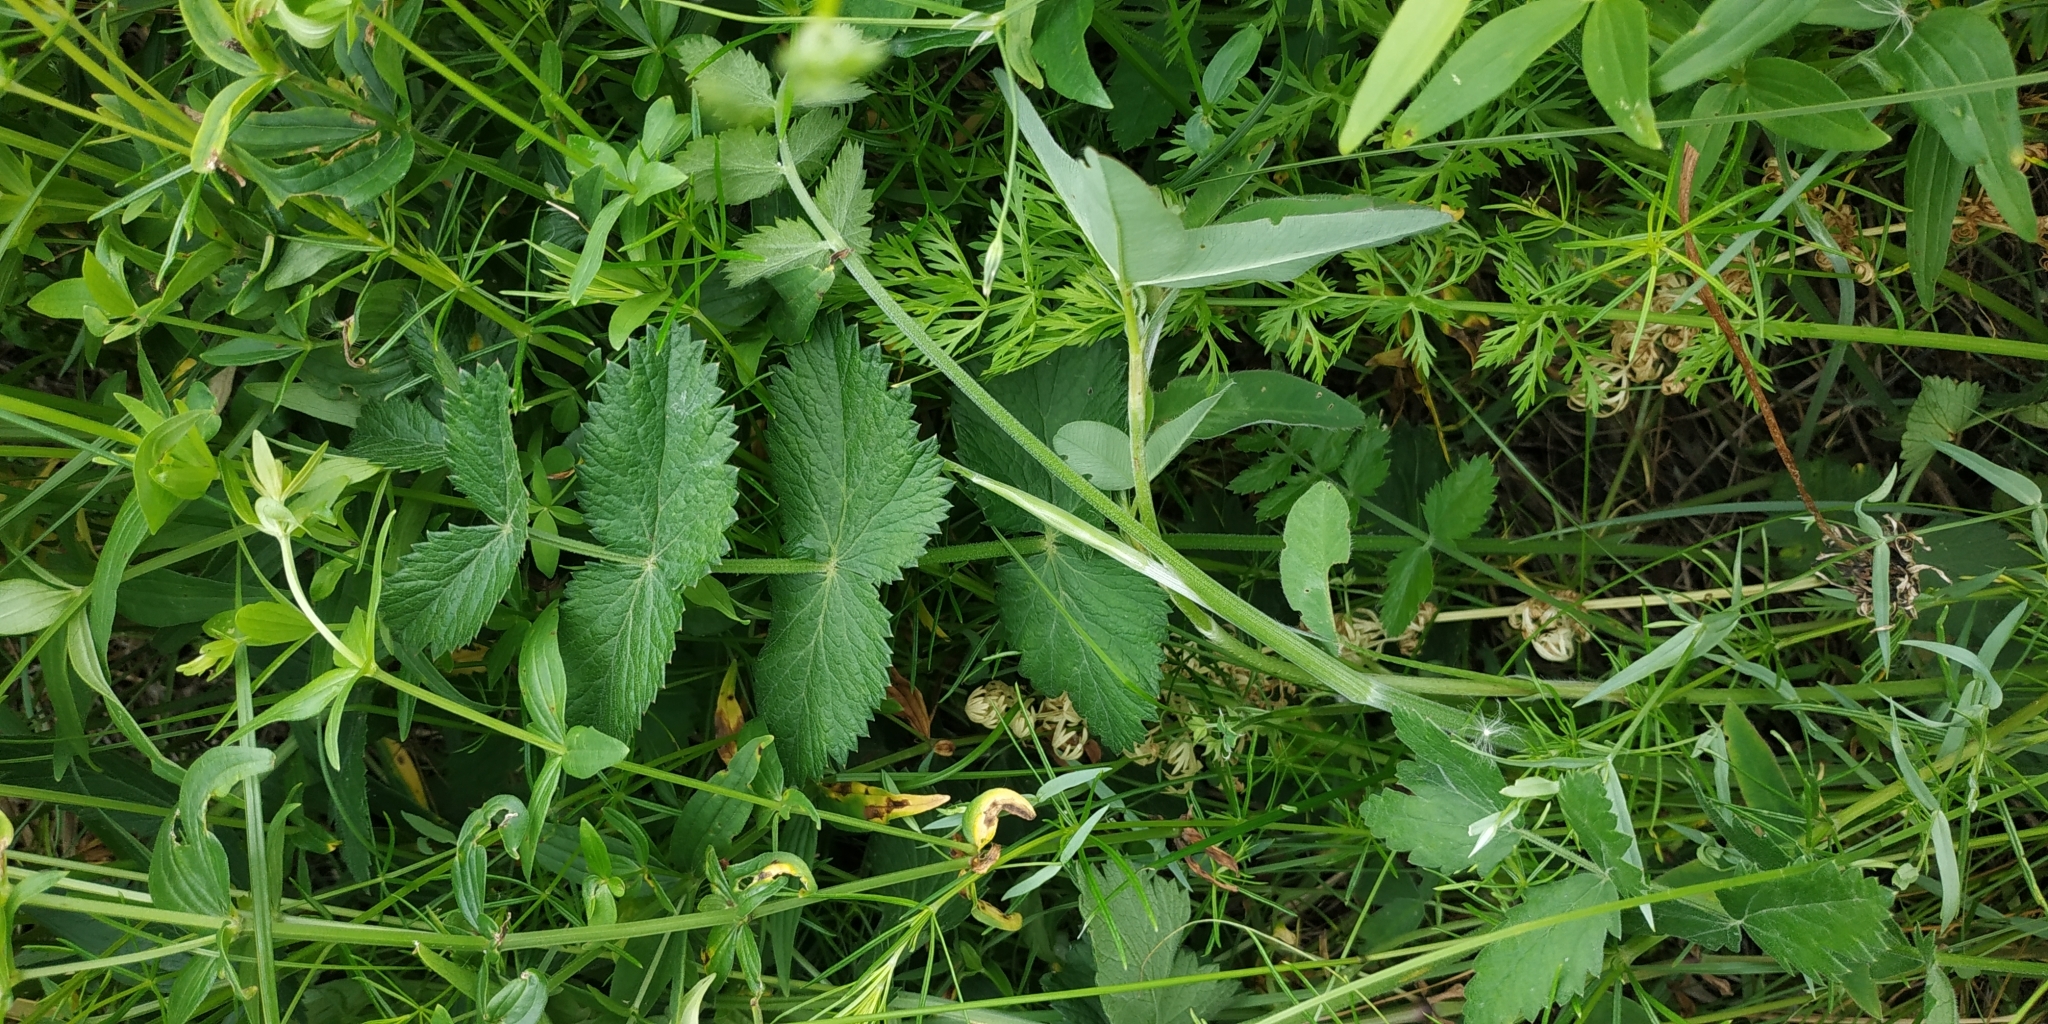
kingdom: Plantae
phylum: Tracheophyta
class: Magnoliopsida
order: Apiales
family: Apiaceae
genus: Pimpinella
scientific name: Pimpinella saxifraga
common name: Burnet-saxifrage
